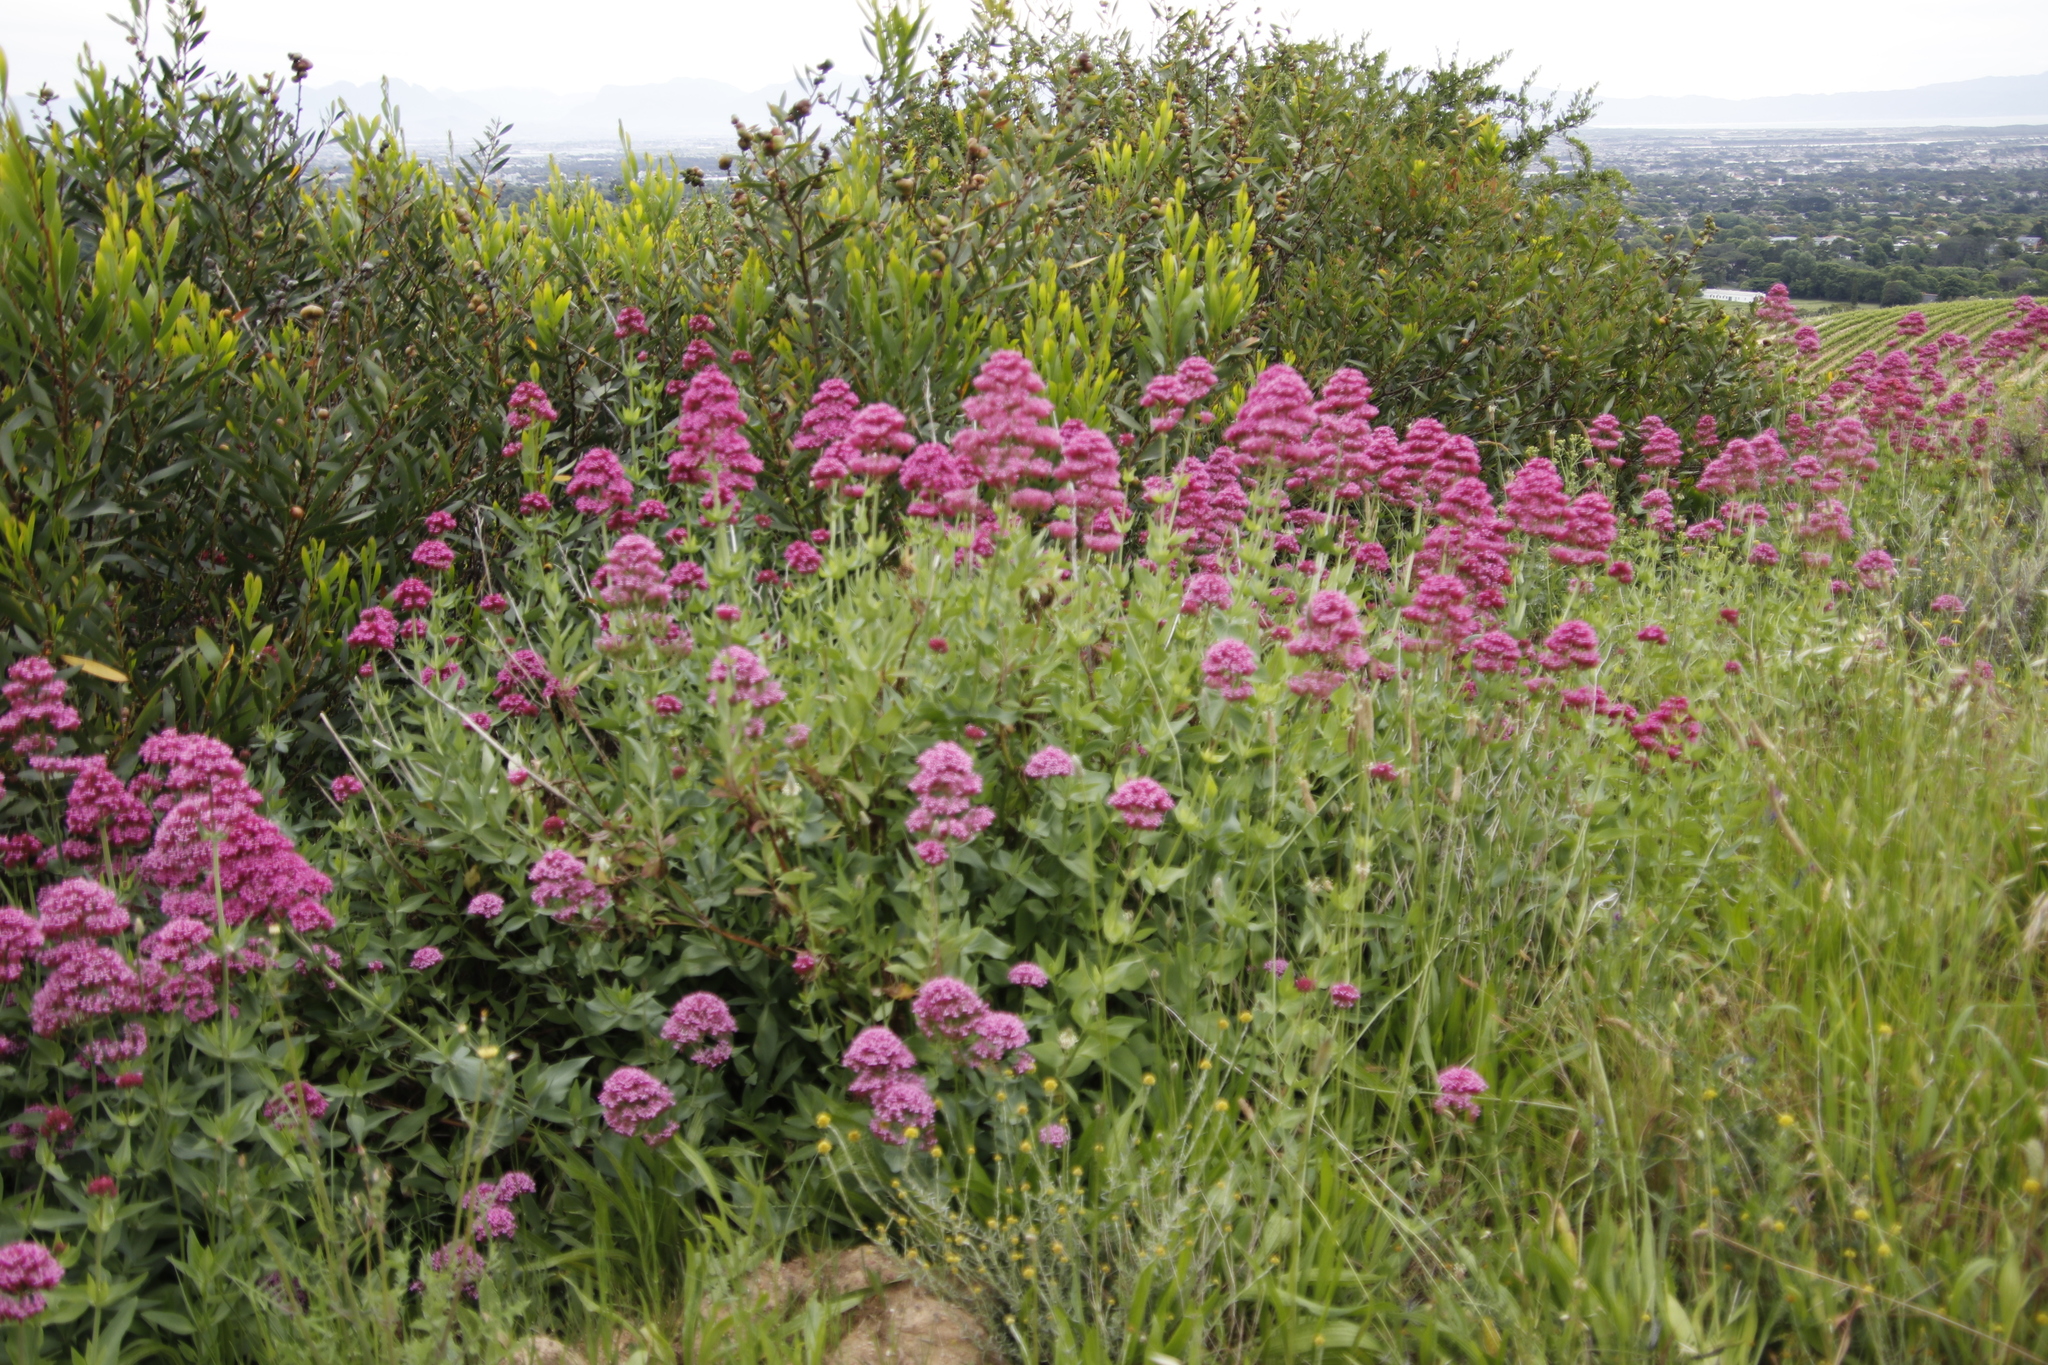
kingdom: Plantae
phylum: Tracheophyta
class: Magnoliopsida
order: Dipsacales
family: Caprifoliaceae
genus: Centranthus
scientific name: Centranthus ruber
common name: Red valerian
